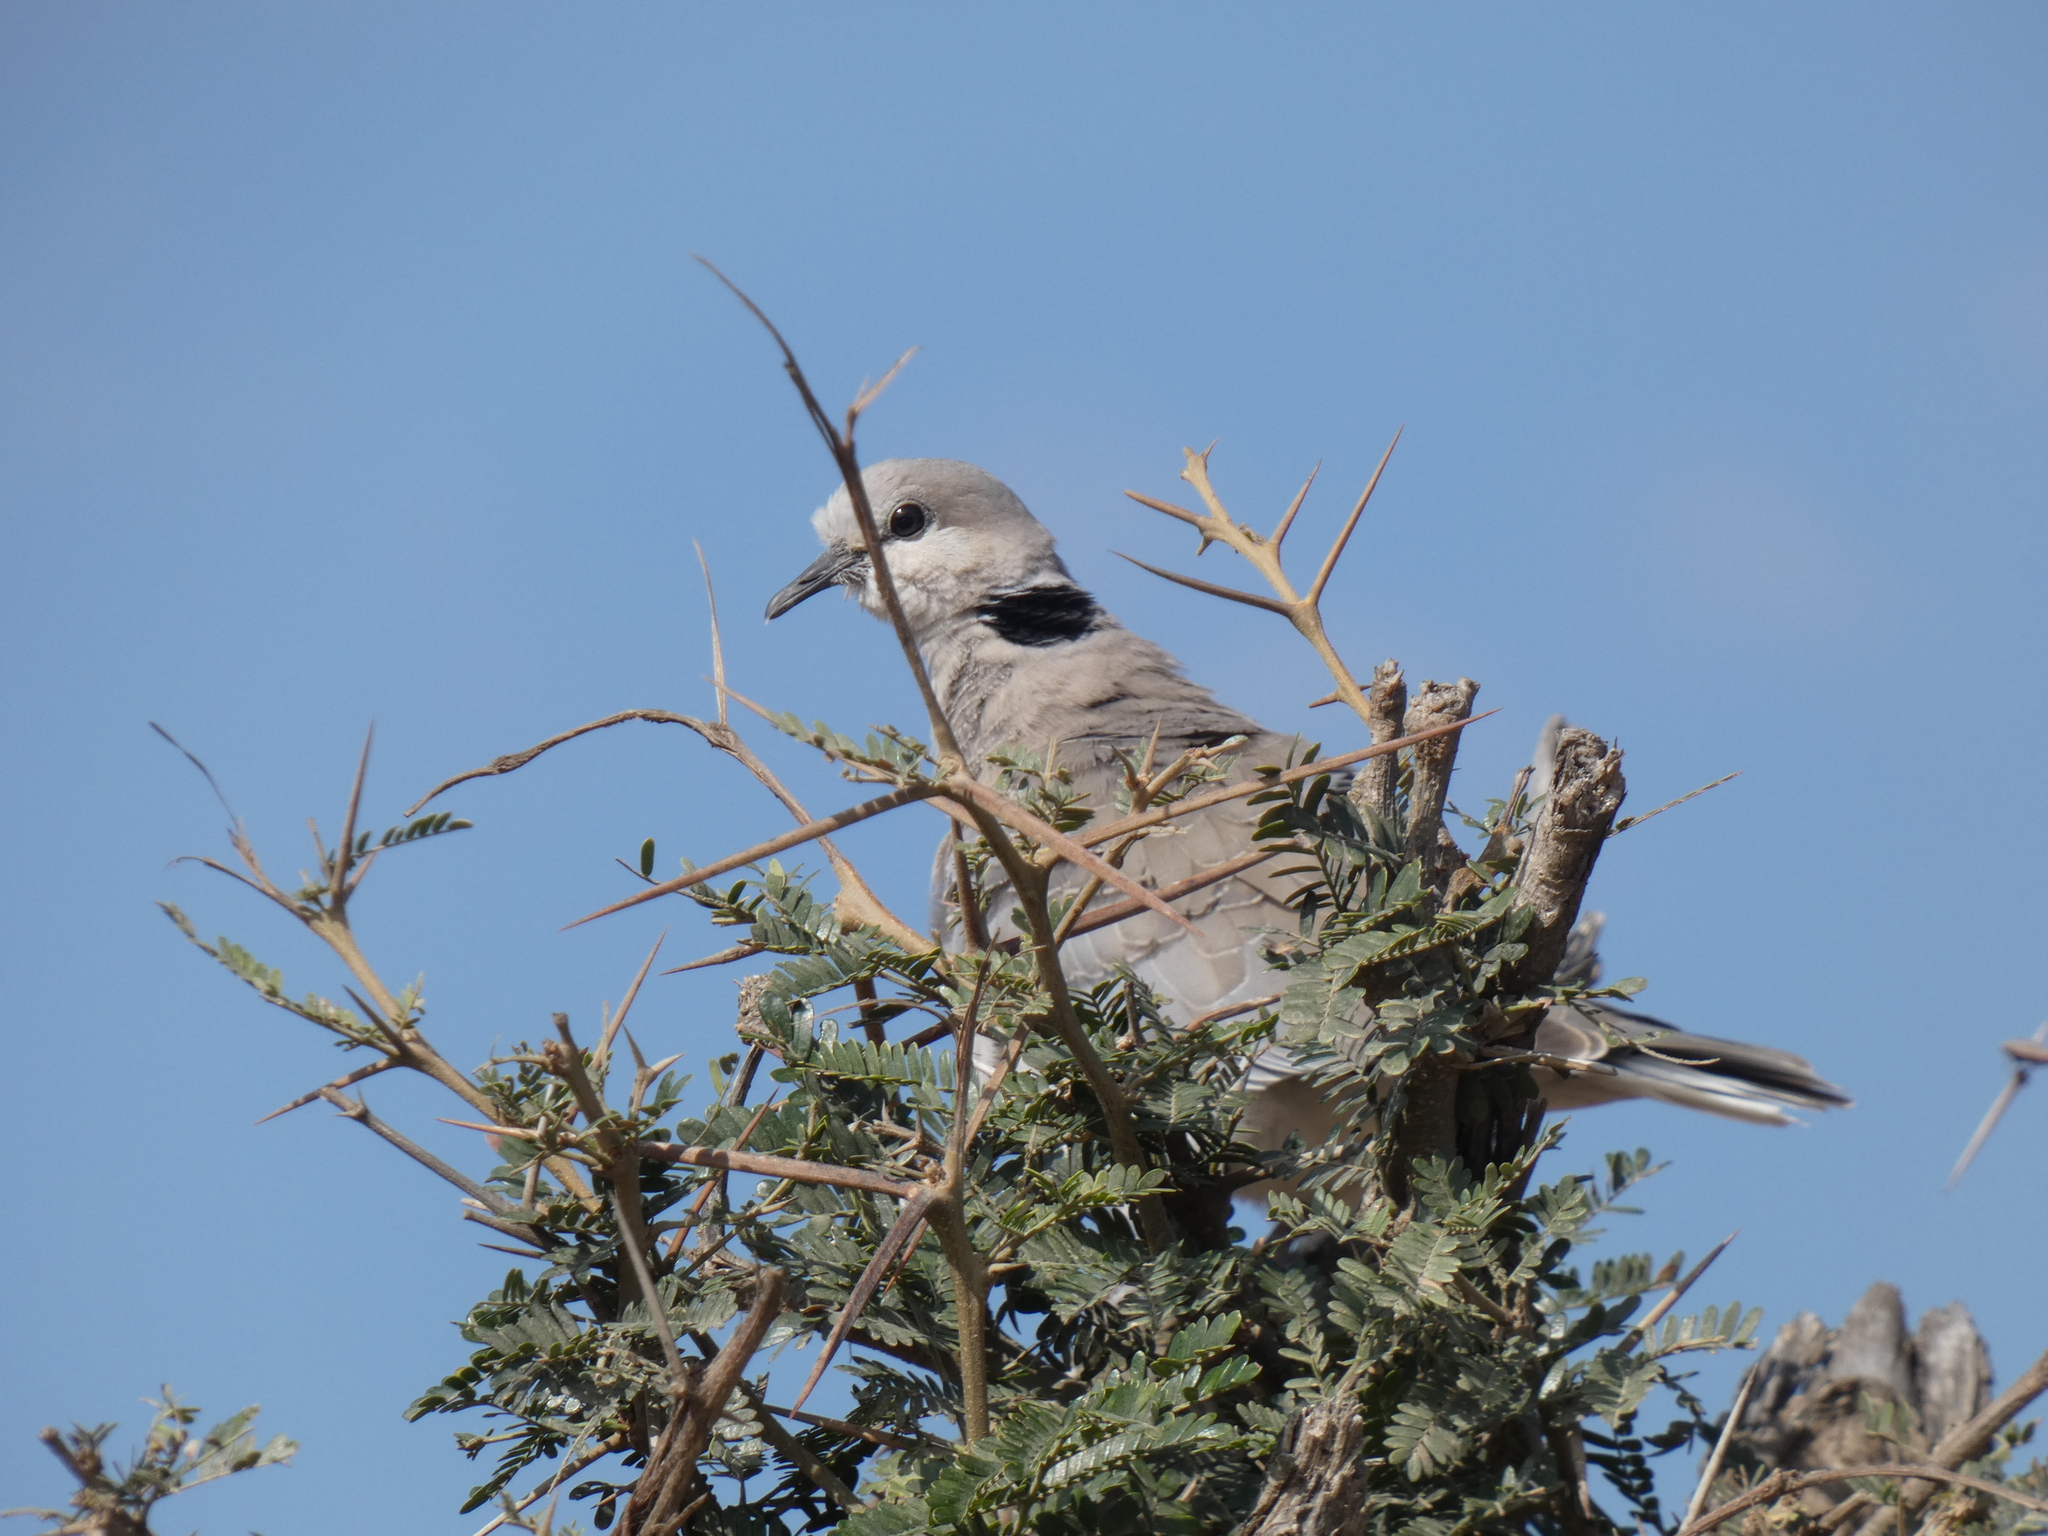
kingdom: Animalia
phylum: Chordata
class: Aves
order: Columbiformes
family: Columbidae
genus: Streptopelia
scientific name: Streptopelia capicola
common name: Ring-necked dove
